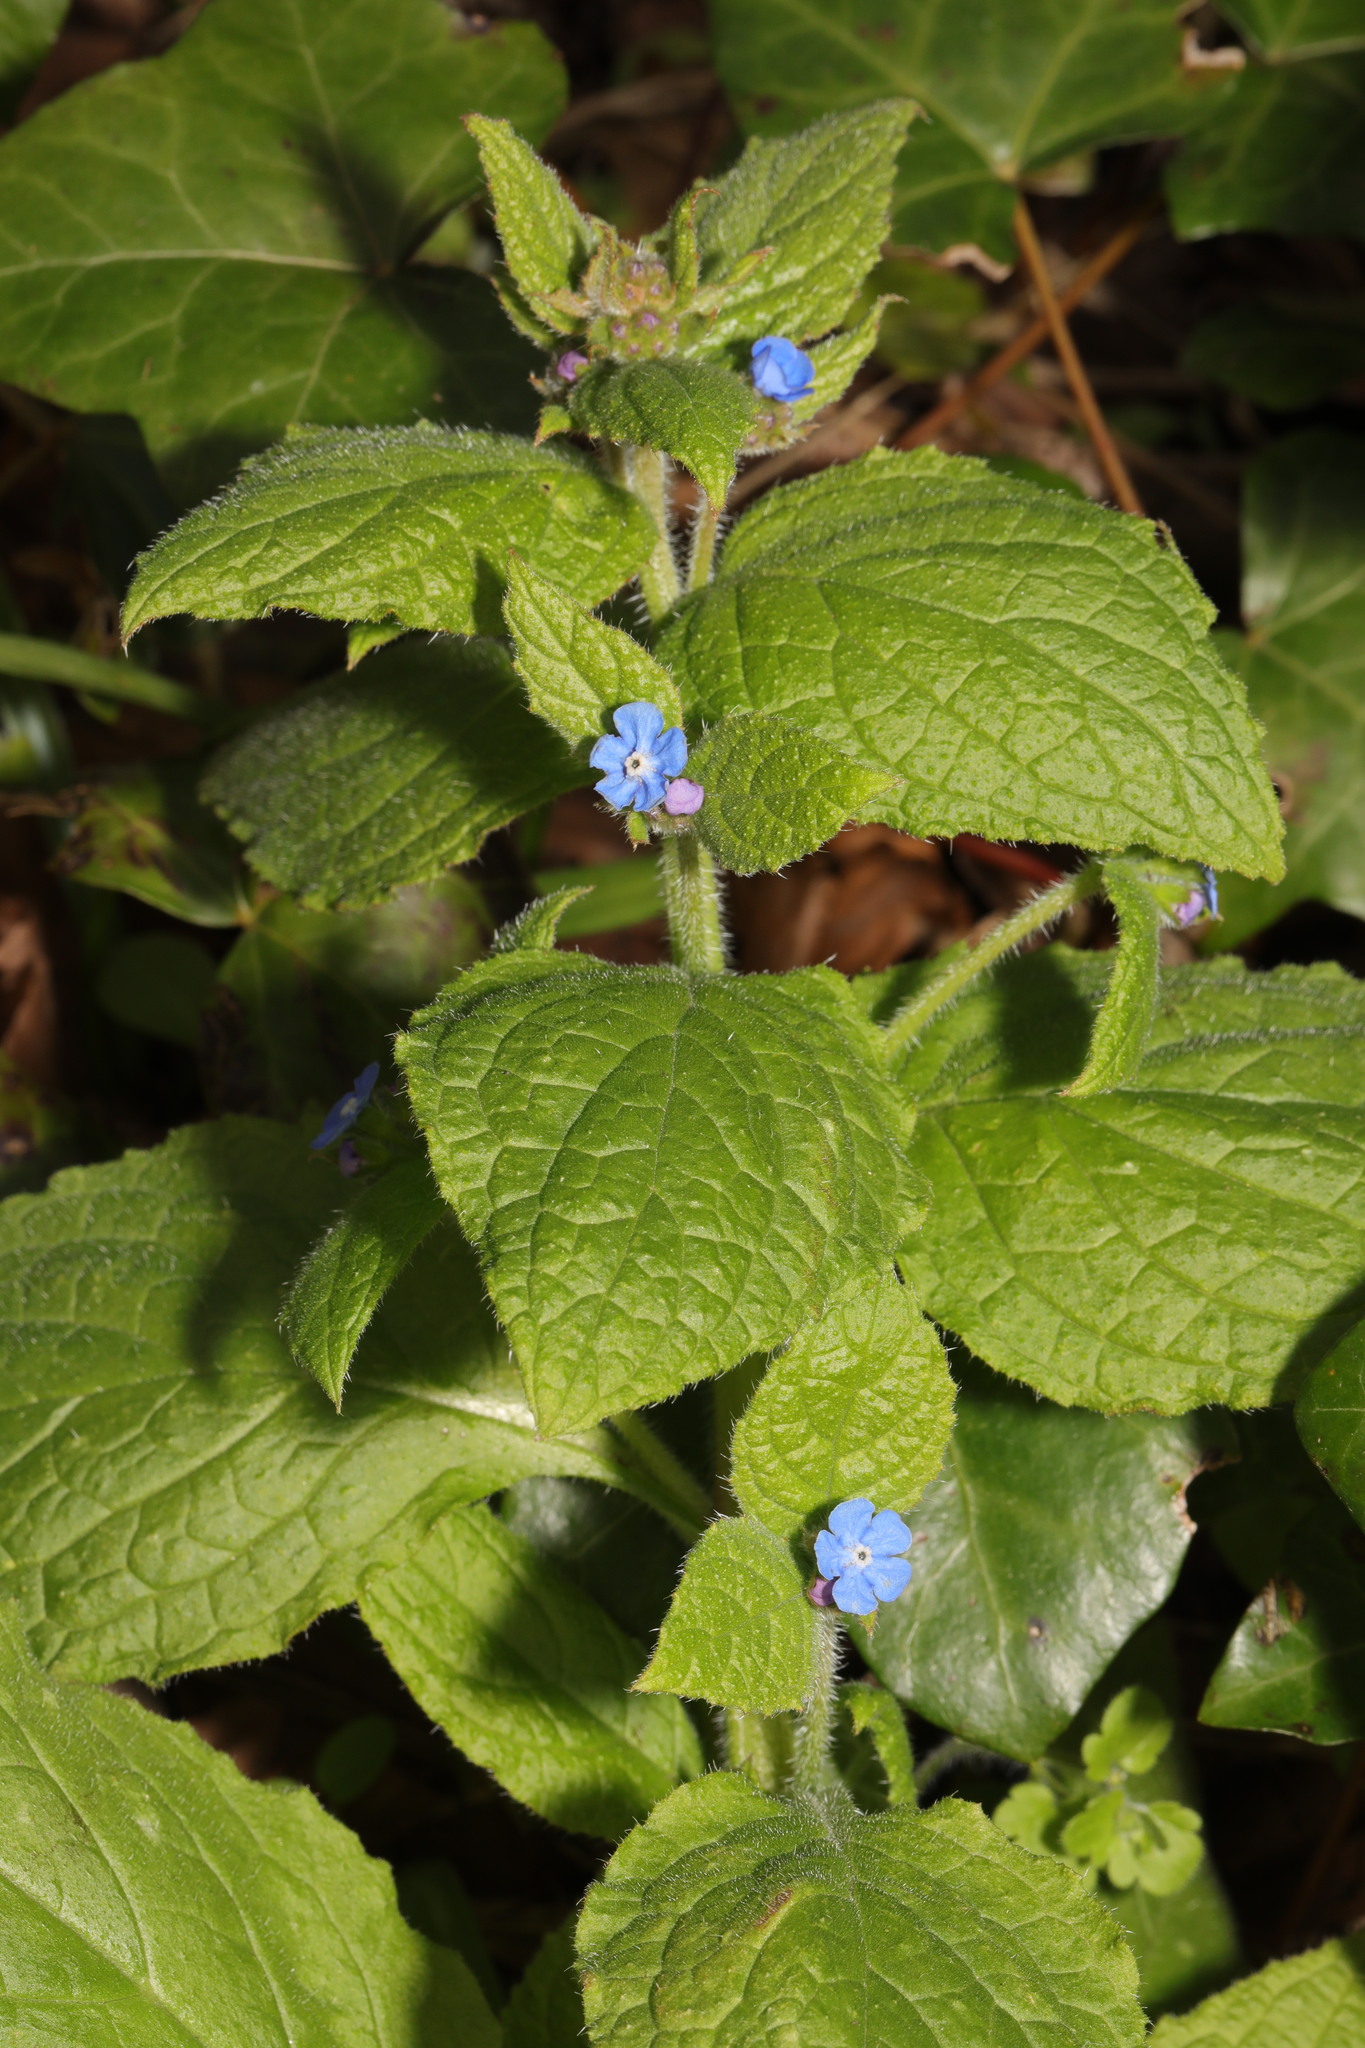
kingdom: Plantae
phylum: Tracheophyta
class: Magnoliopsida
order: Boraginales
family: Boraginaceae
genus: Pentaglottis
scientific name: Pentaglottis sempervirens
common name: Green alkanet
